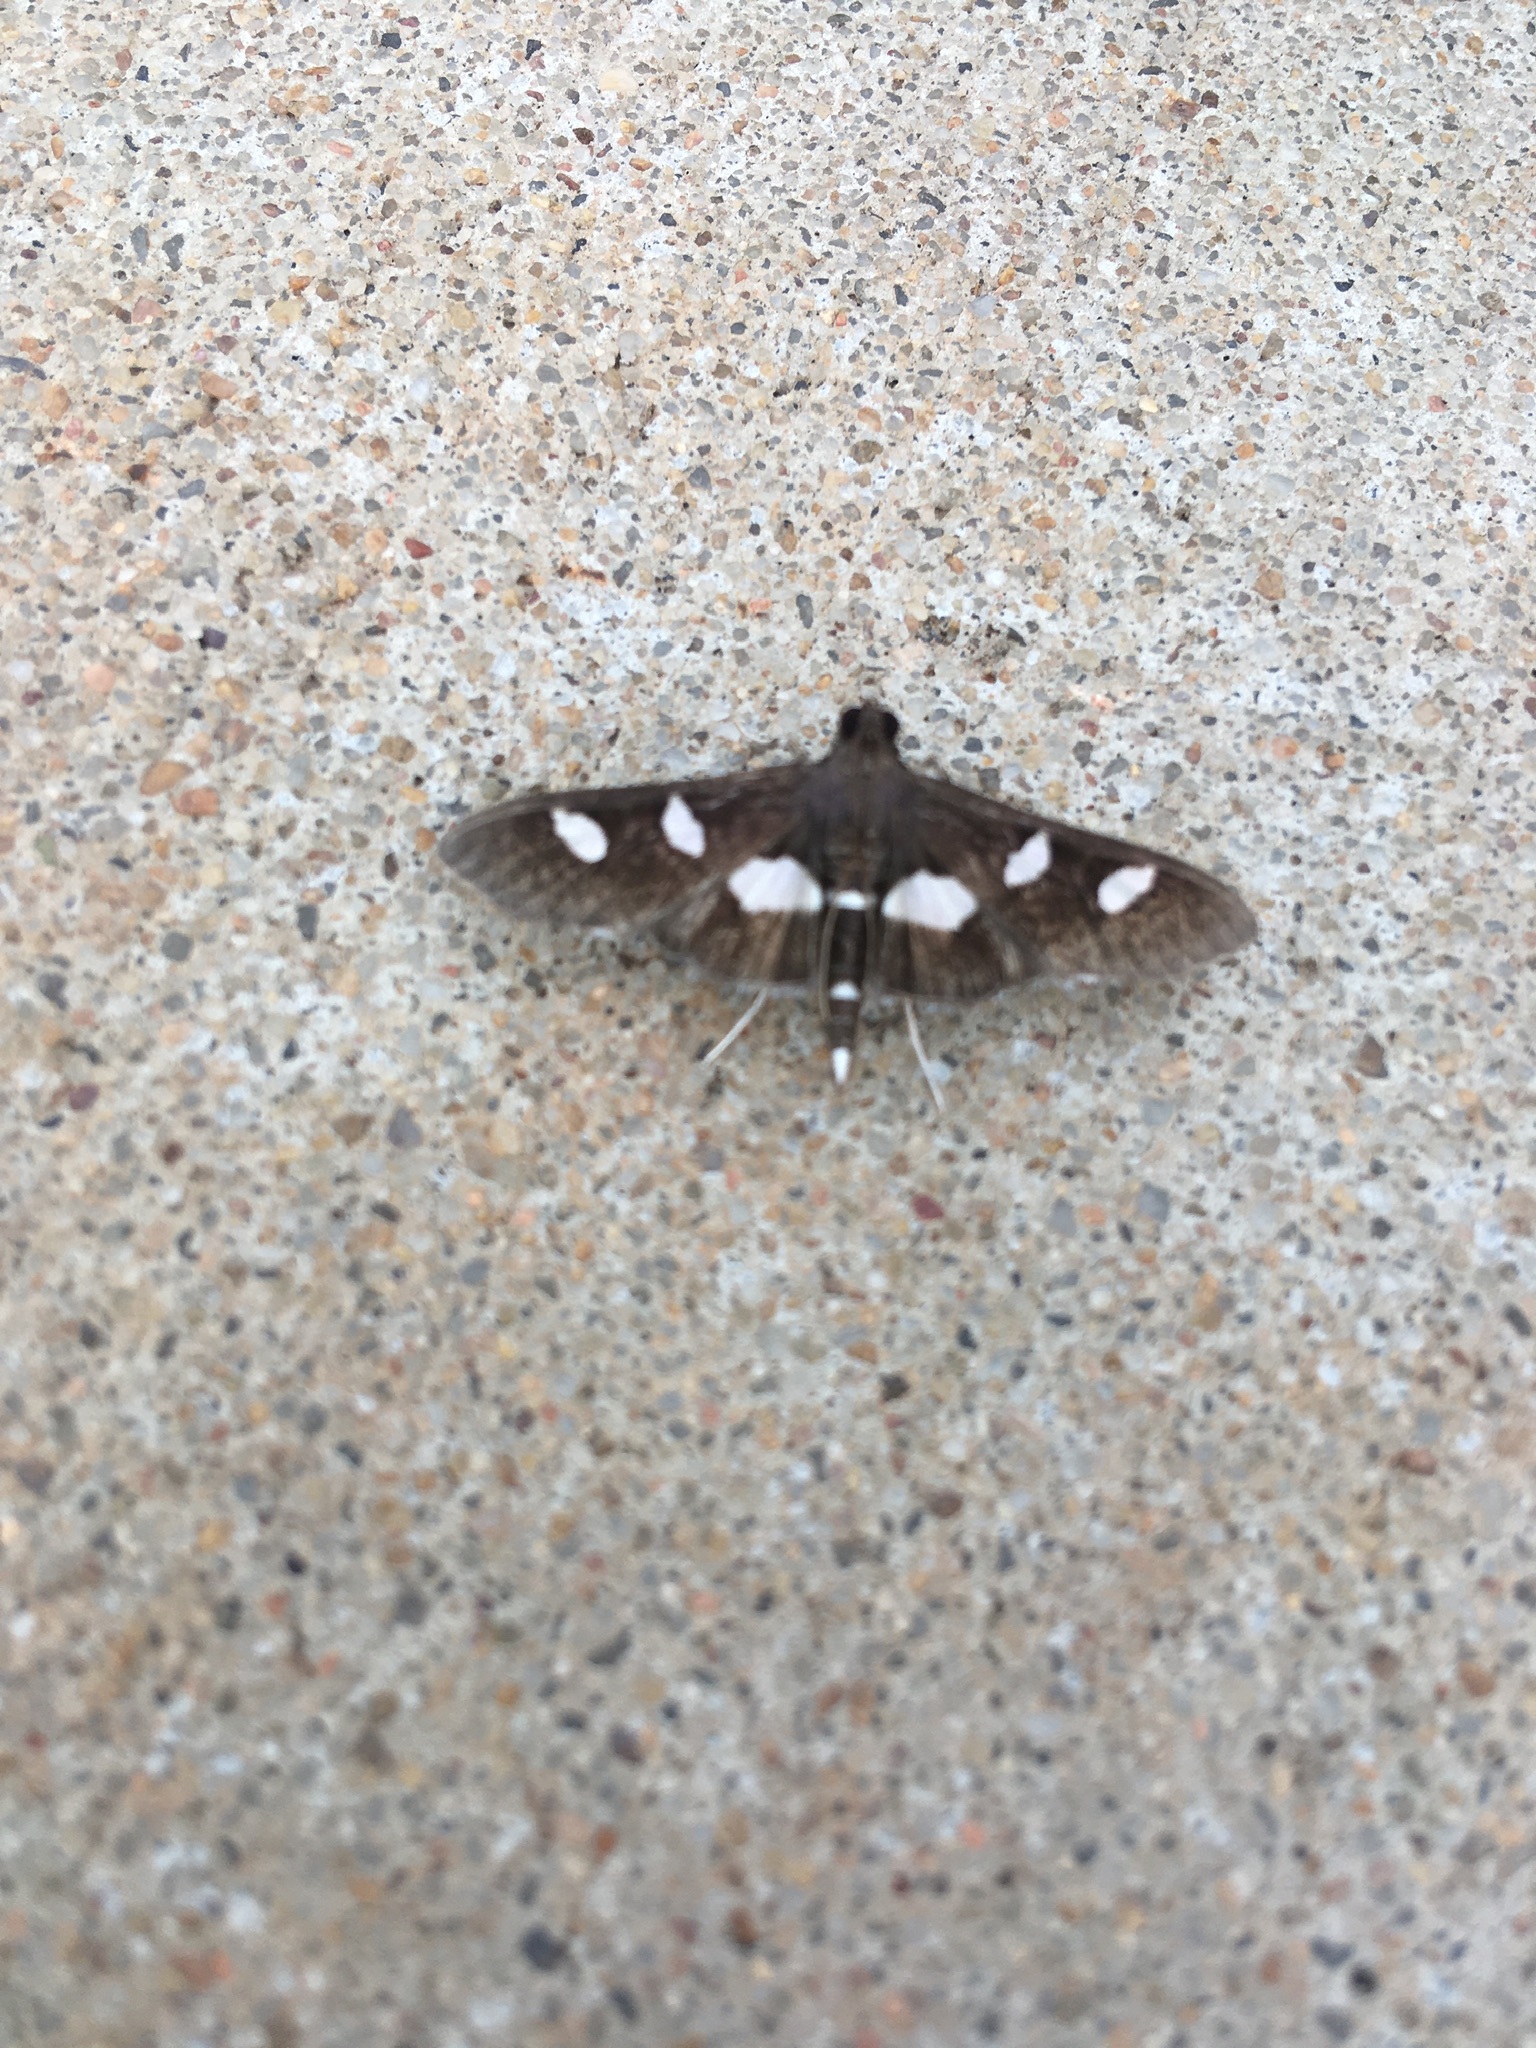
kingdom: Animalia
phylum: Arthropoda
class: Insecta
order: Lepidoptera
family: Crambidae
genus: Desmia
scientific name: Desmia
